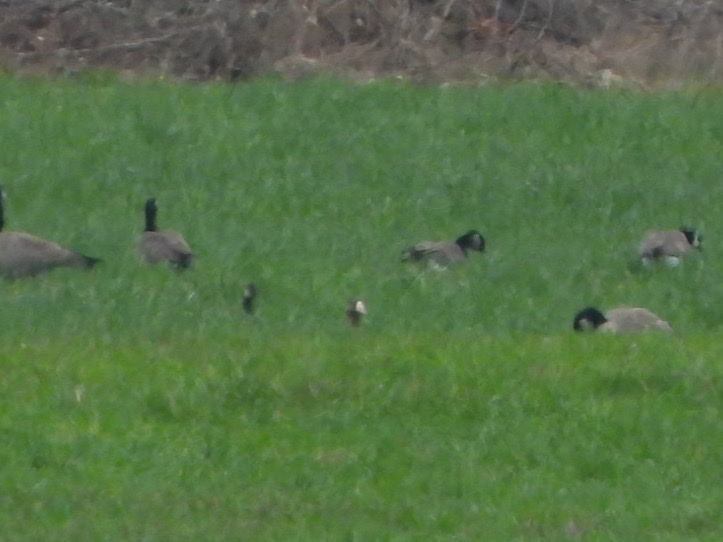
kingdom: Animalia
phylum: Chordata
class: Aves
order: Anseriformes
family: Anatidae
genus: Anser
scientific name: Anser albifrons
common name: Greater white-fronted goose
